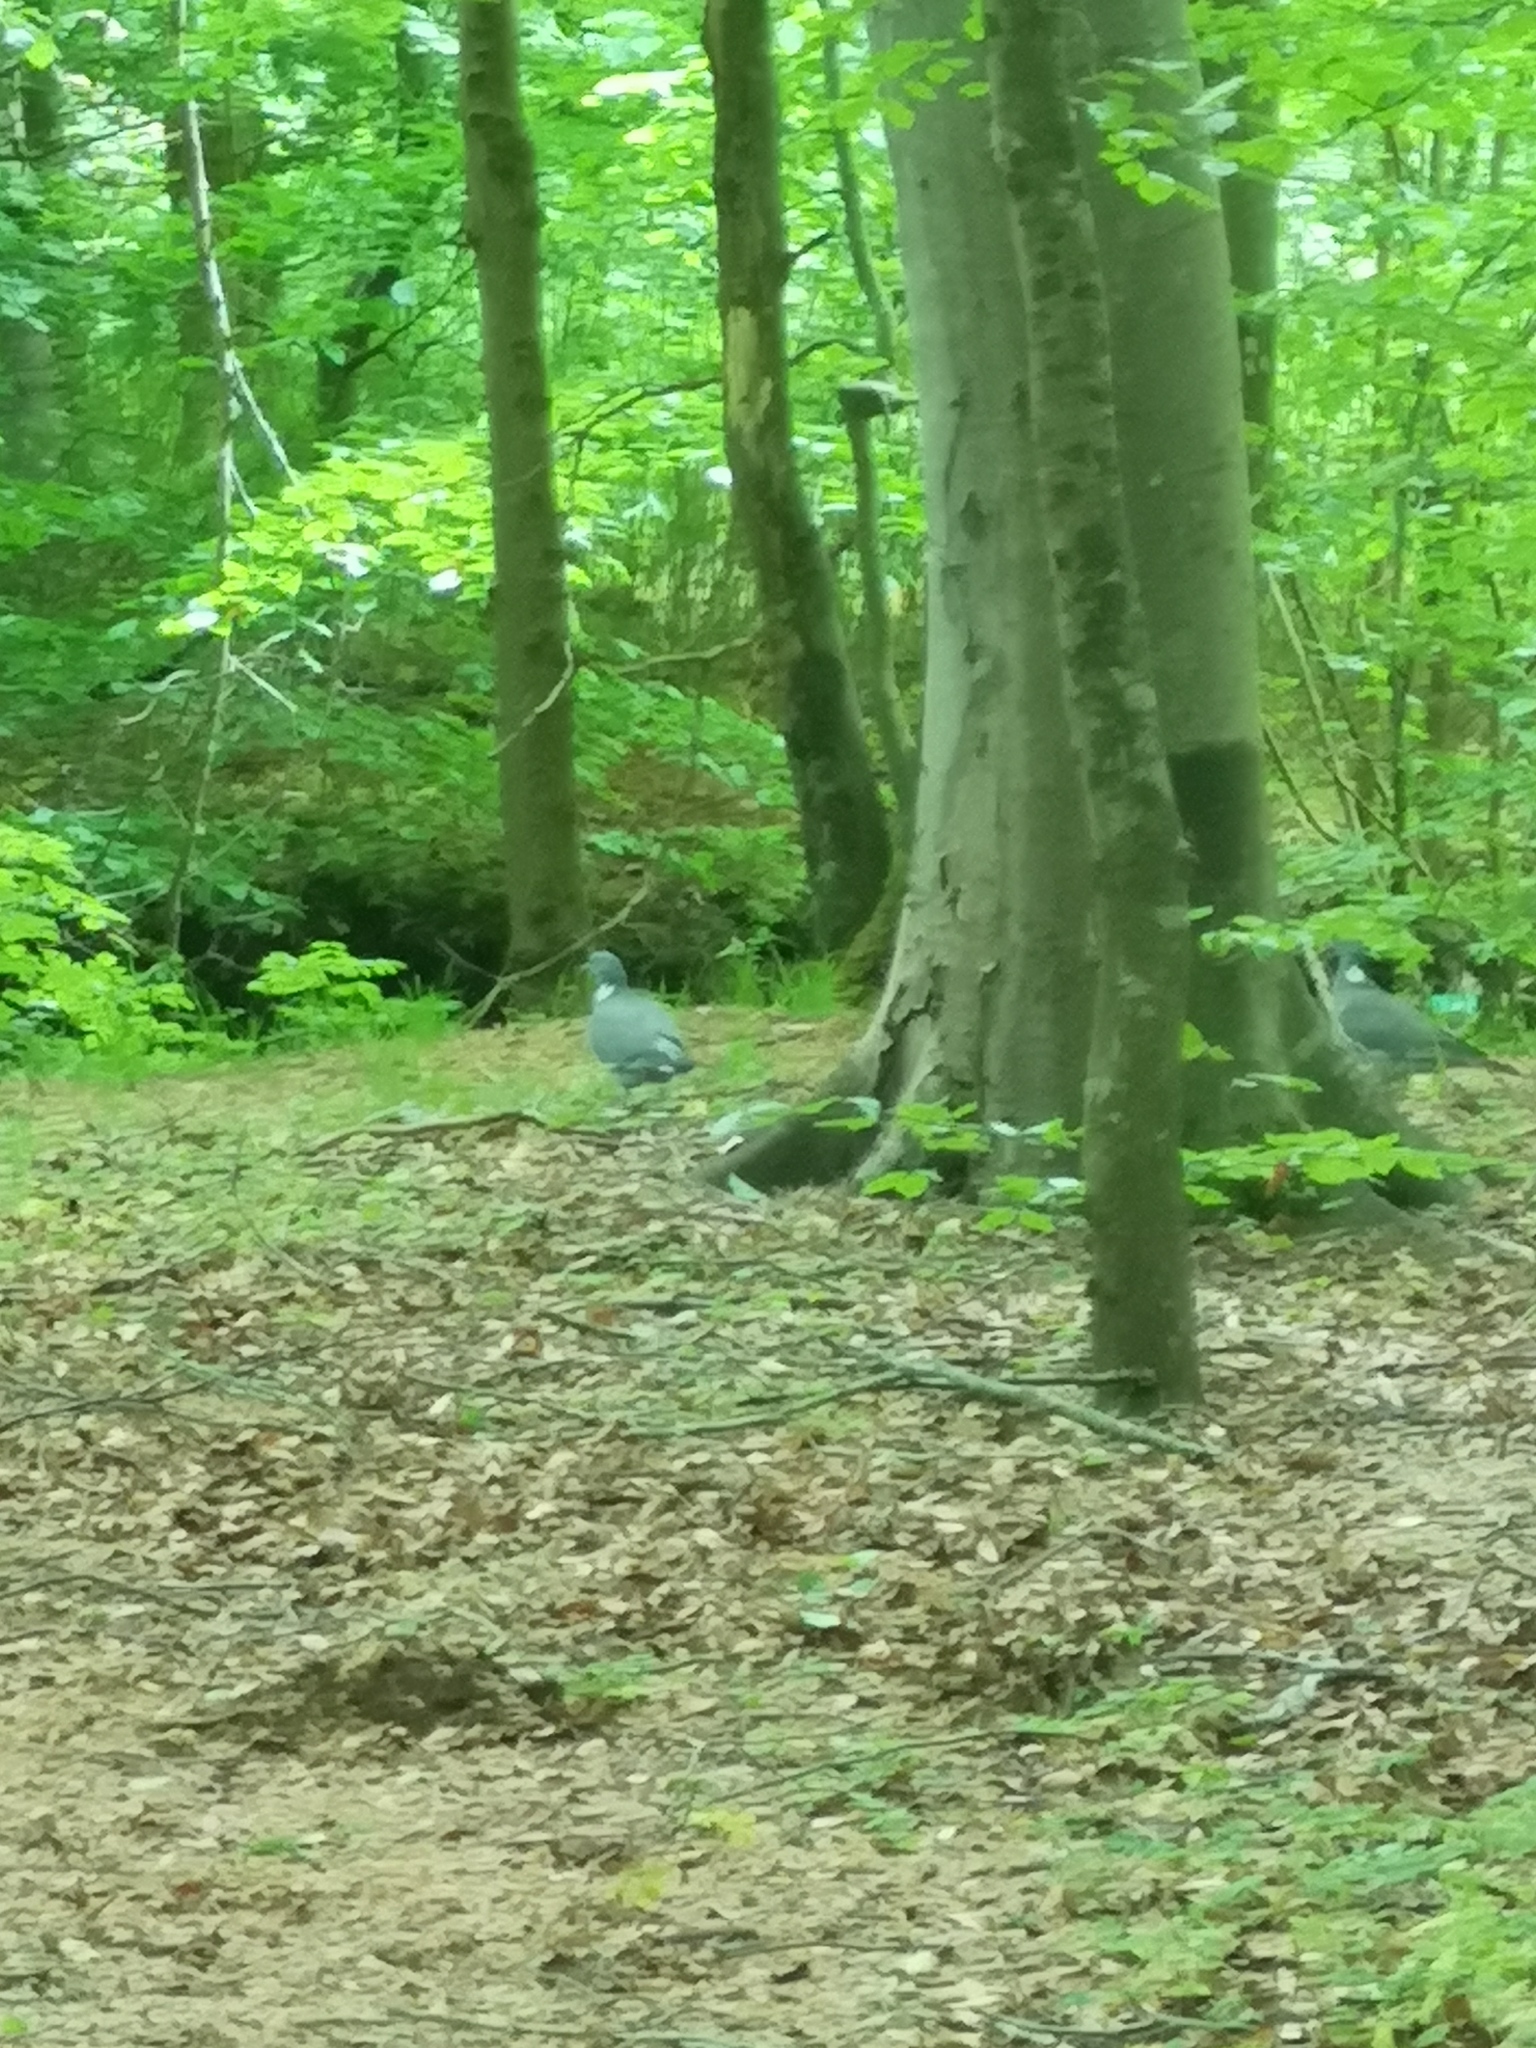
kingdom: Animalia
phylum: Chordata
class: Aves
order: Columbiformes
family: Columbidae
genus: Columba
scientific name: Columba palumbus
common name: Common wood pigeon
